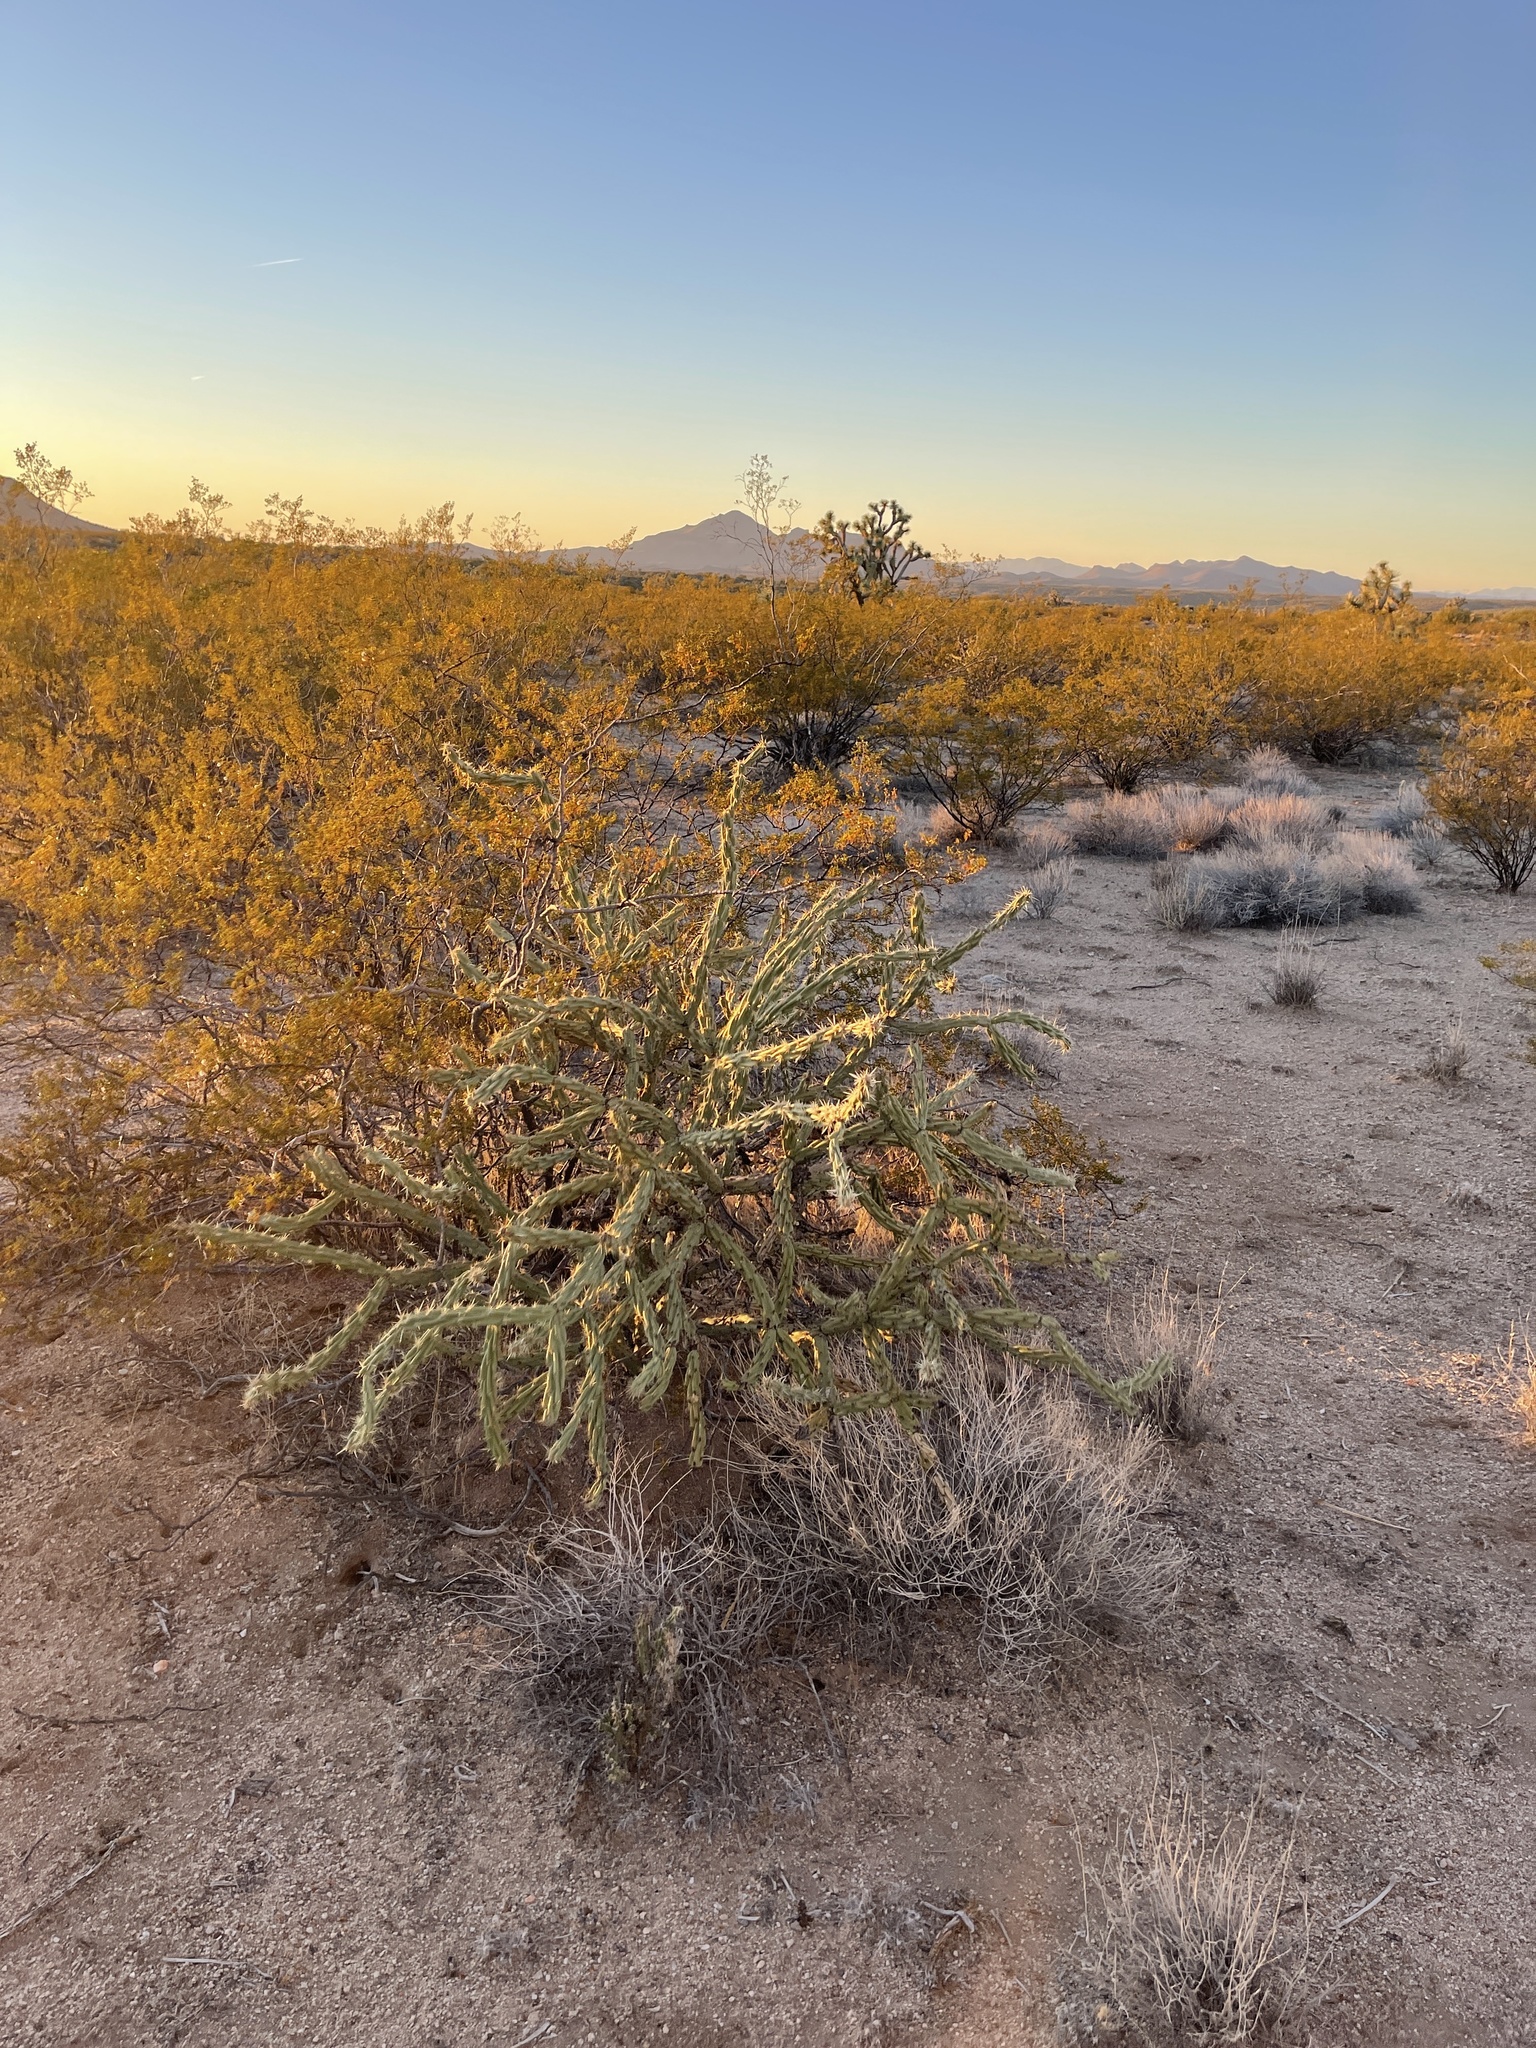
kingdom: Plantae
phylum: Tracheophyta
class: Magnoliopsida
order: Caryophyllales
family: Cactaceae
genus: Cylindropuntia
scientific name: Cylindropuntia acanthocarpa
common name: Buckhorn cholla
